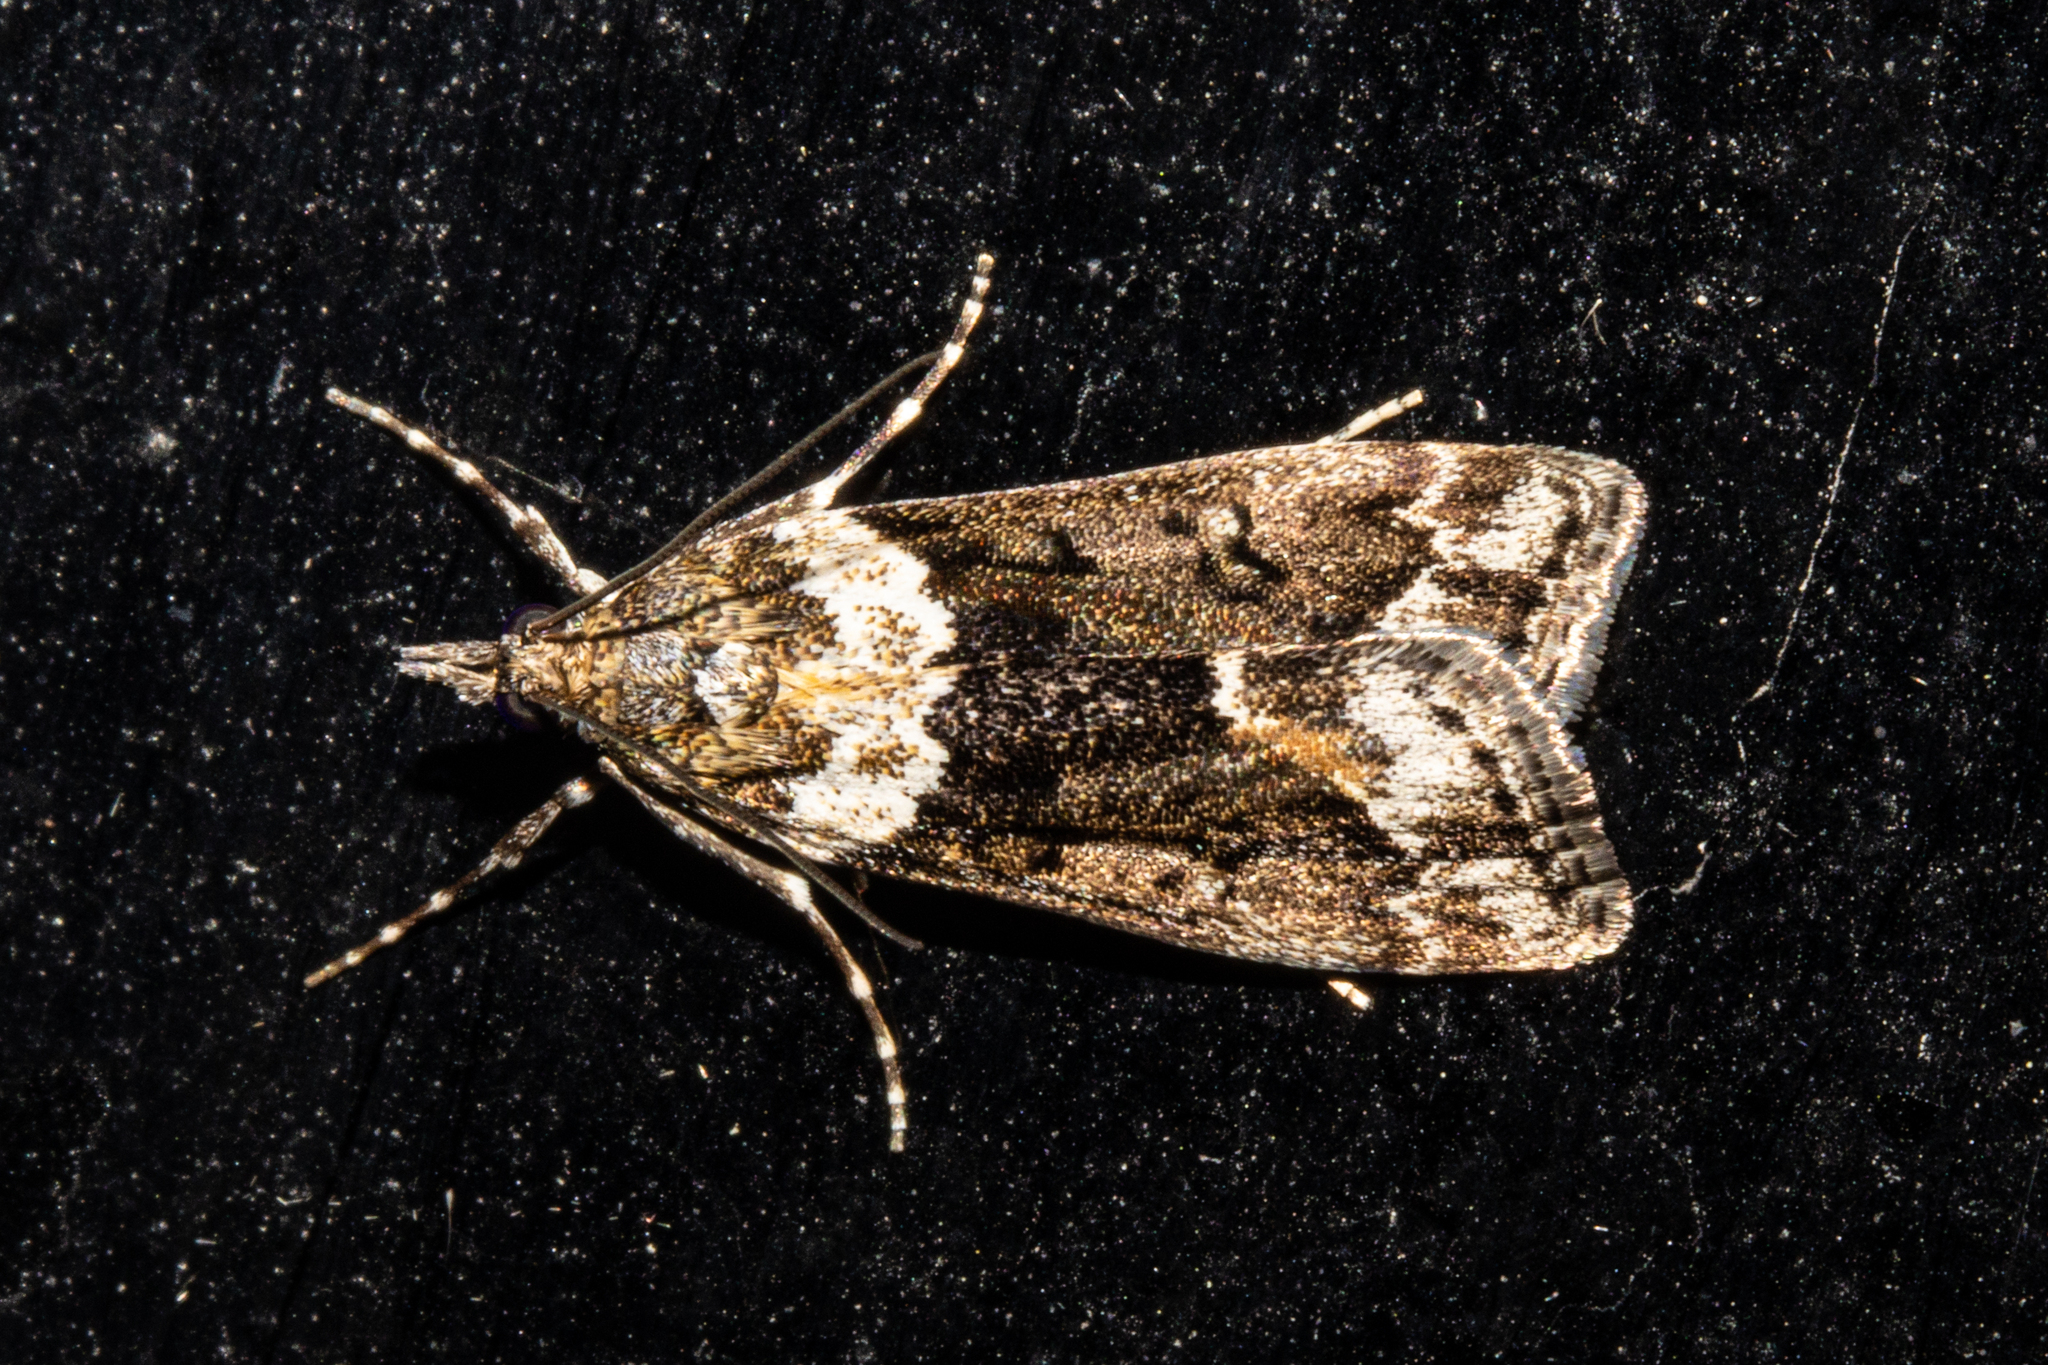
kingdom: Animalia
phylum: Arthropoda
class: Insecta
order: Lepidoptera
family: Crambidae
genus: Eudonia
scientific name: Eudonia submarginalis
